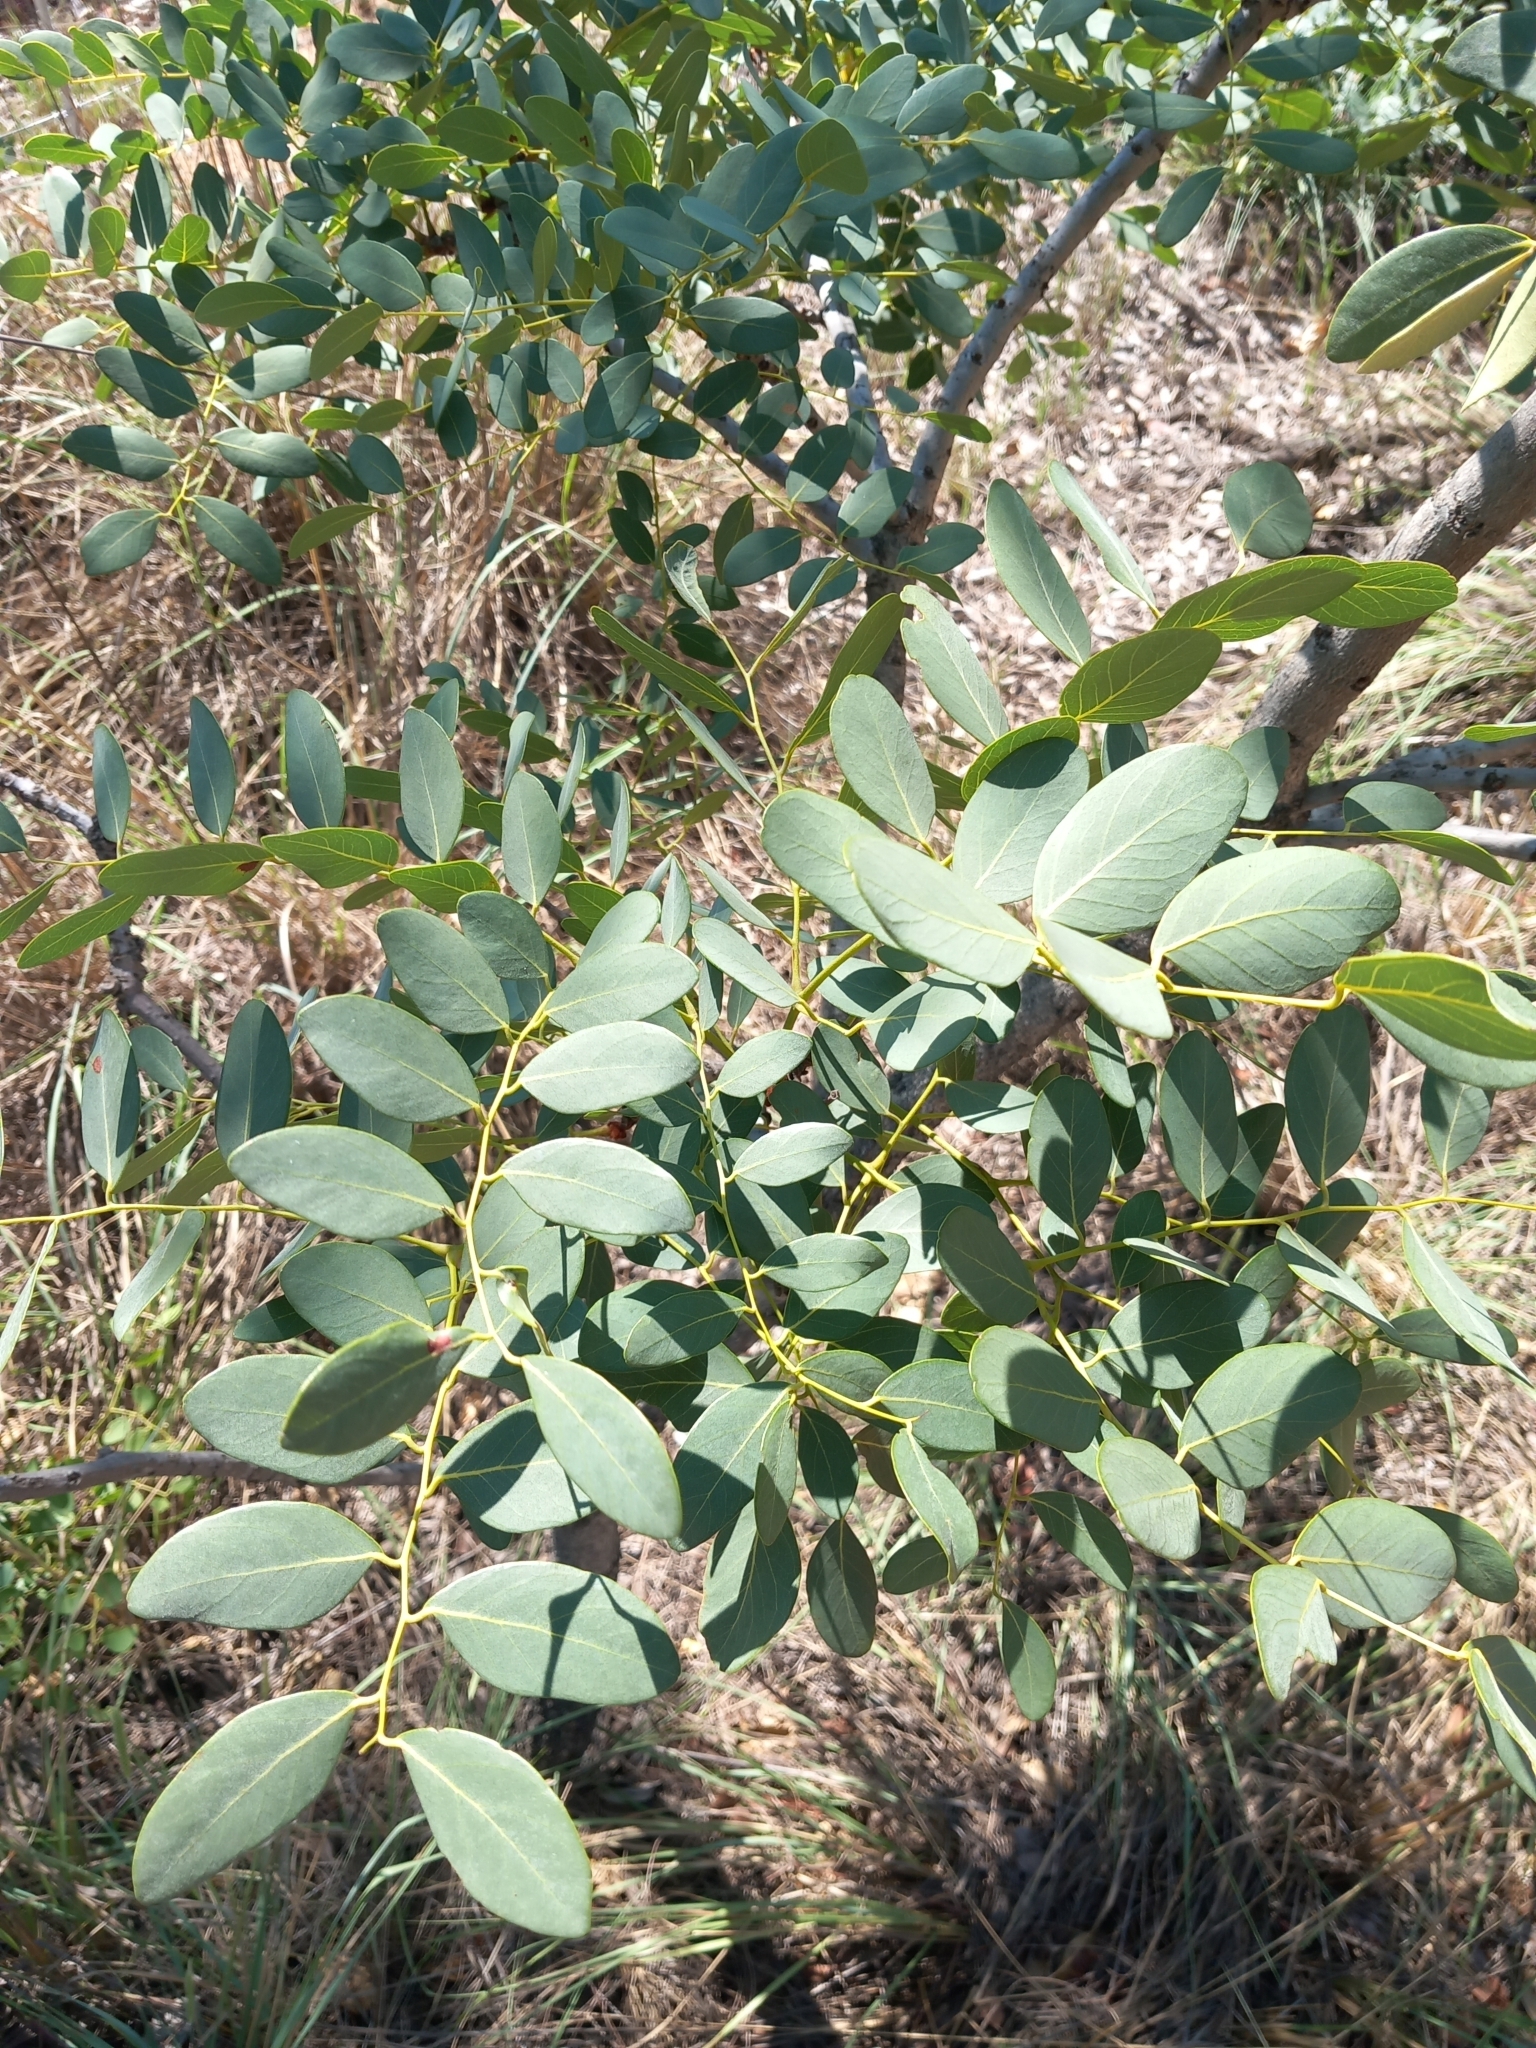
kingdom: Plantae
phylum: Tracheophyta
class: Magnoliopsida
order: Fabales
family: Fabaceae
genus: Burkea
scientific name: Burkea africana
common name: Mkalati tree
